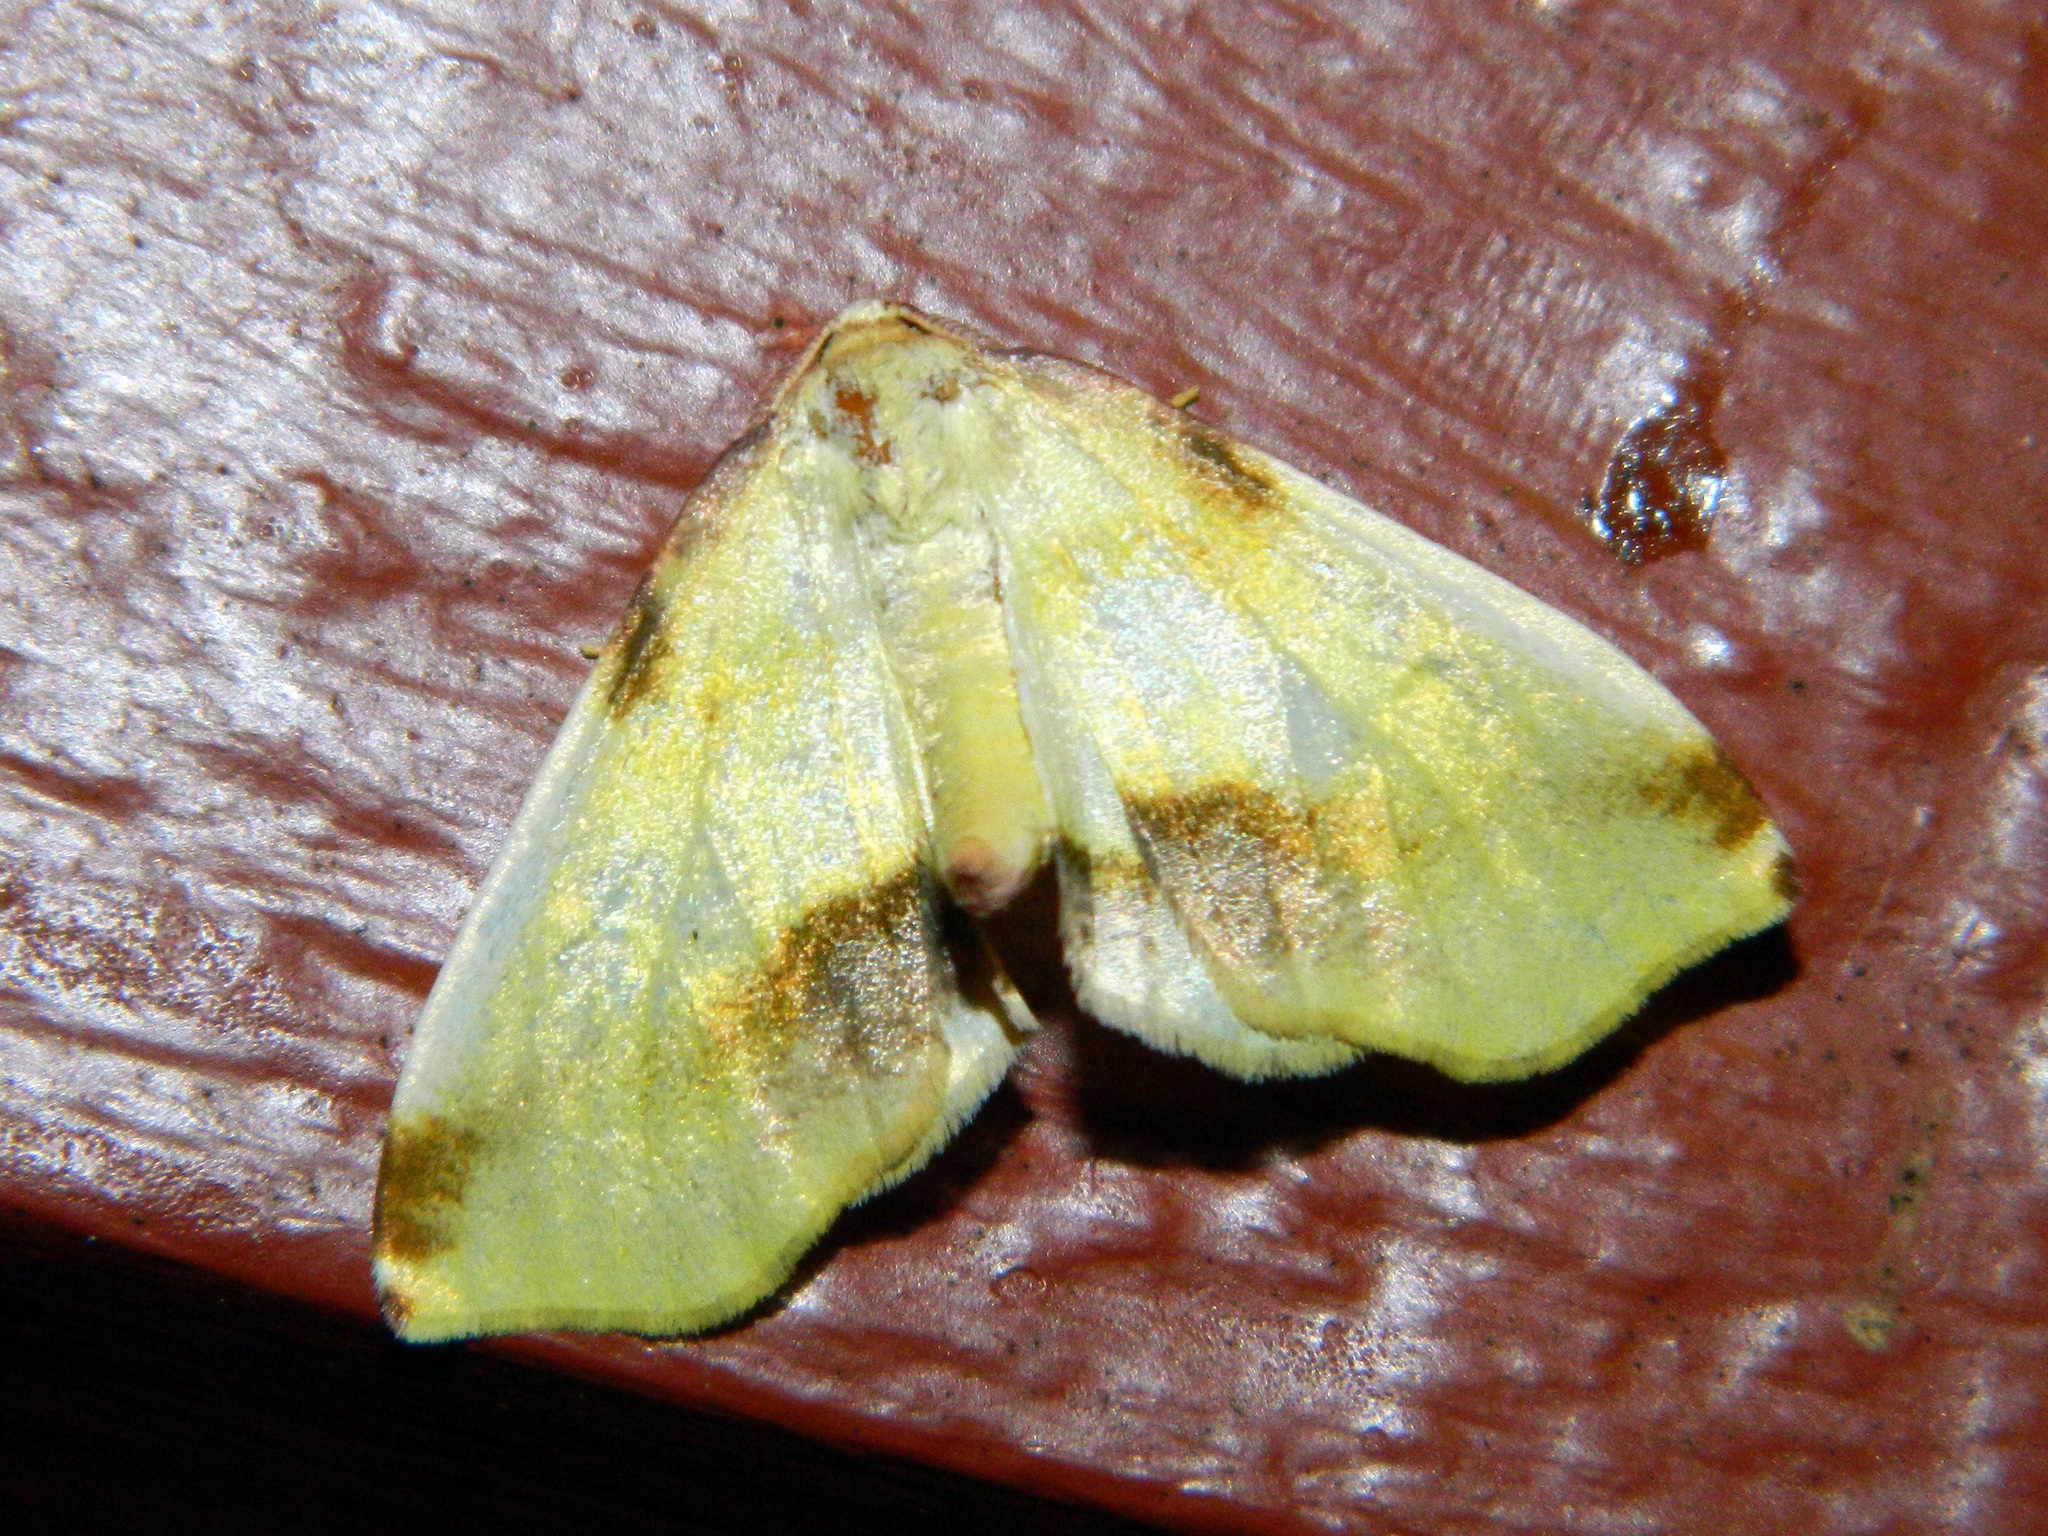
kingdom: Animalia
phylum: Arthropoda
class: Insecta
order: Lepidoptera
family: Geometridae
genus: Plagodis
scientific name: Plagodis serinaria
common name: Lemon plagodis
